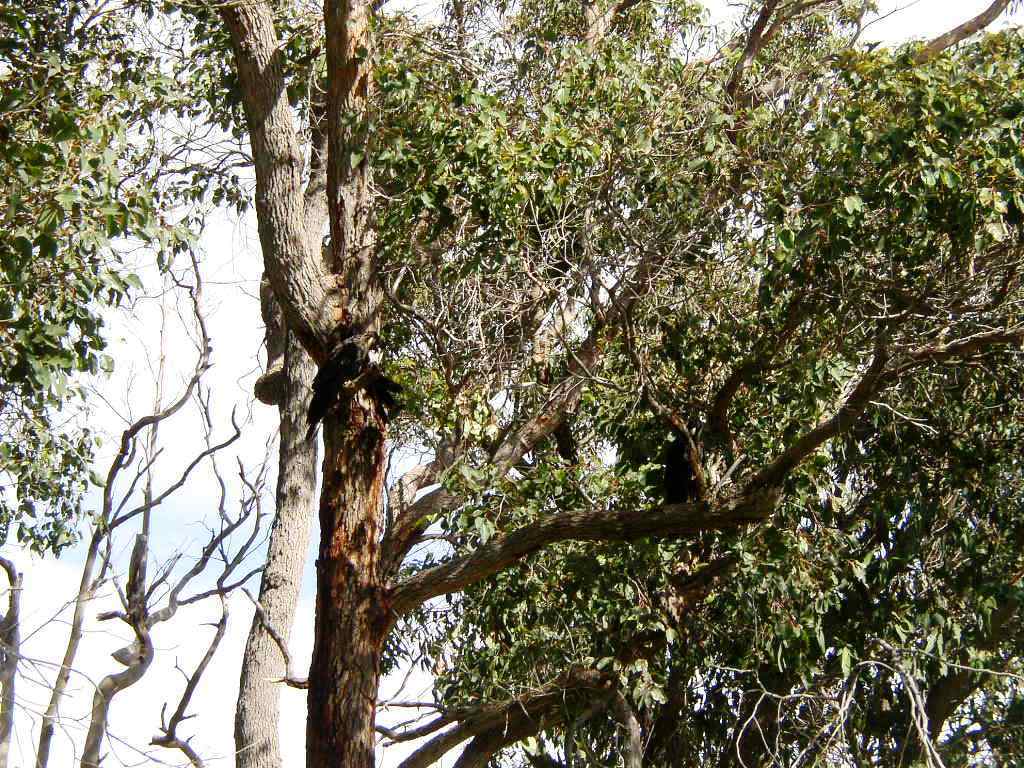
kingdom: Animalia
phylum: Chordata
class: Aves
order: Psittaciformes
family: Cacatuidae
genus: Zanda
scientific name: Zanda
